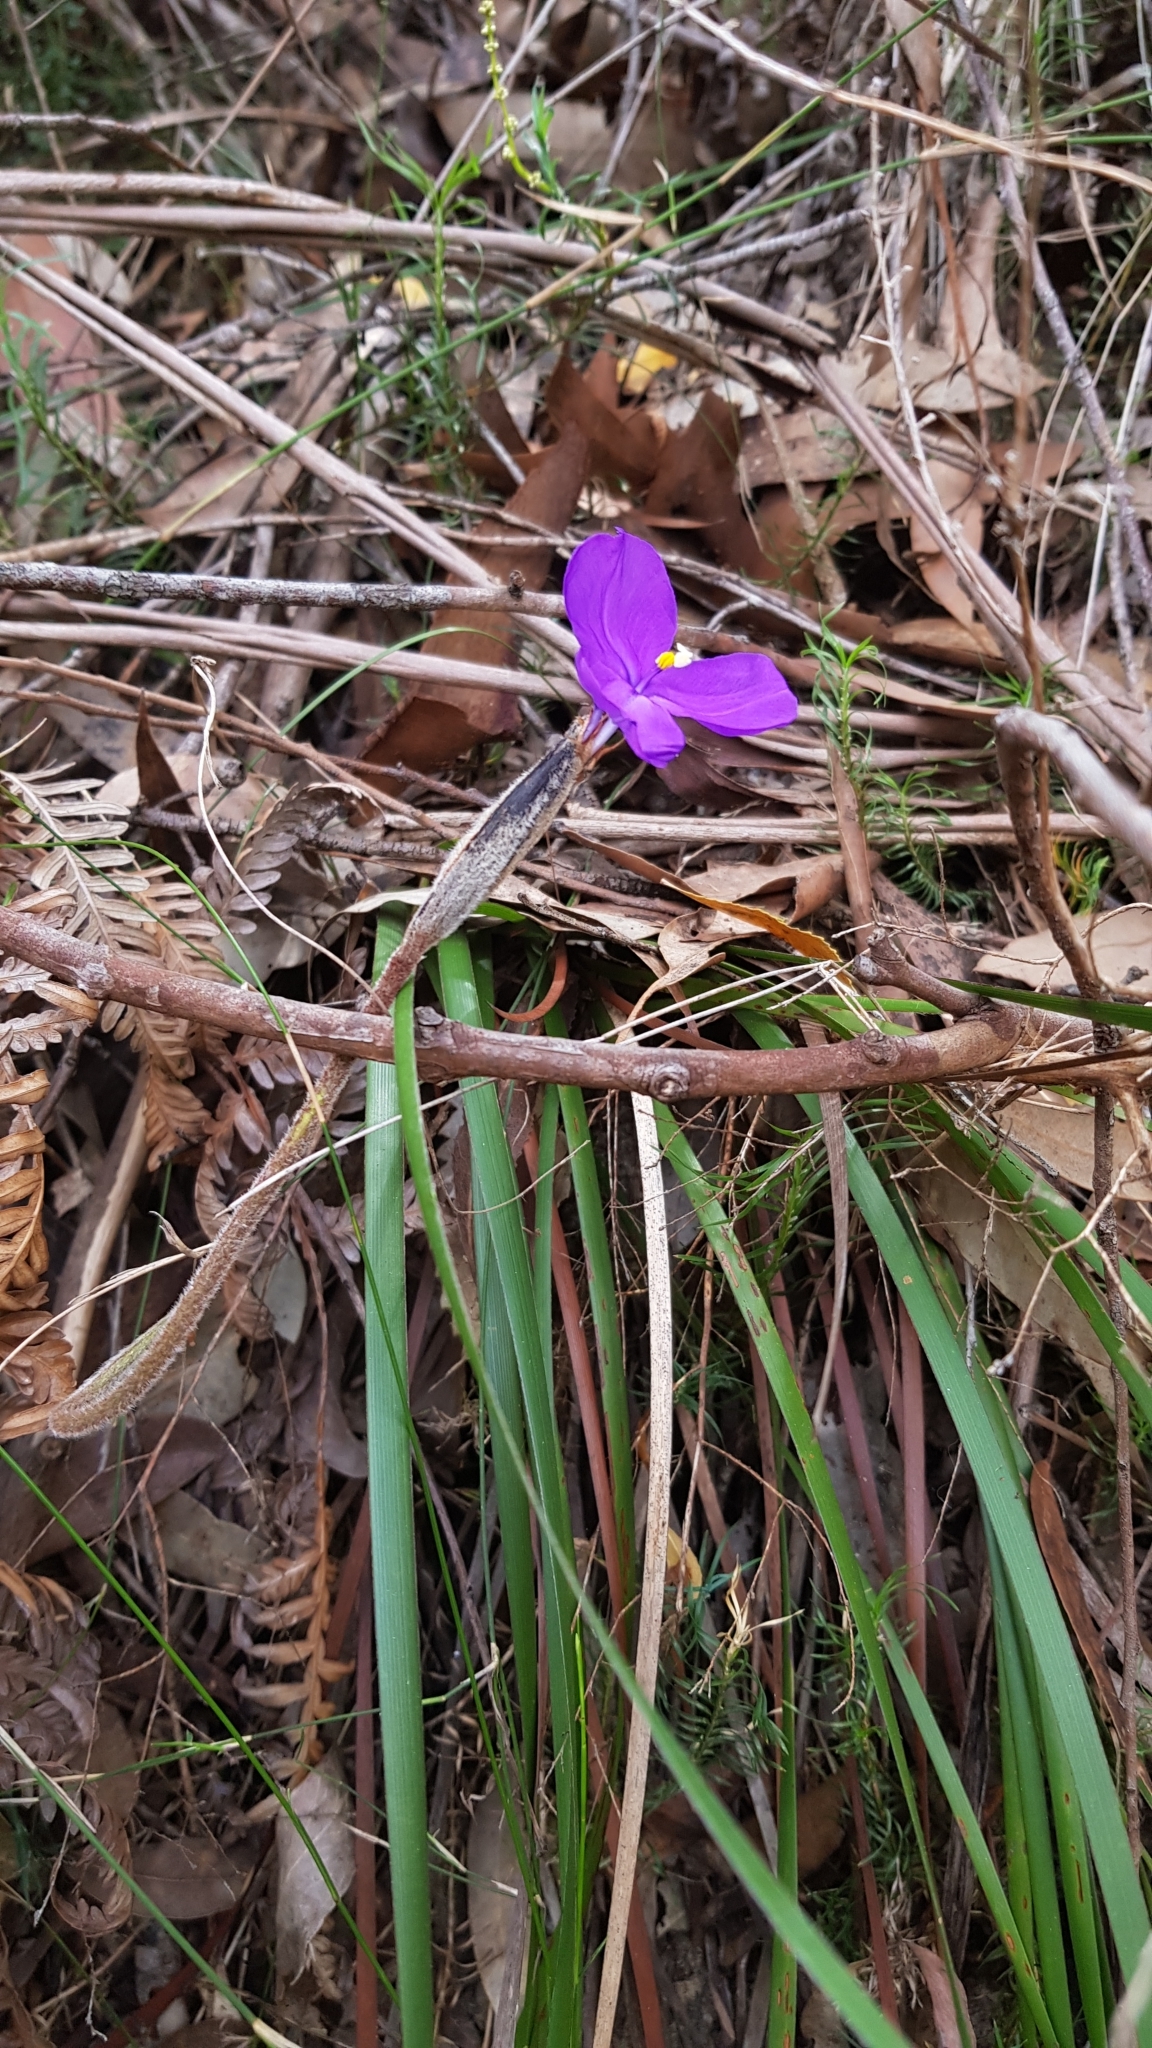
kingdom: Plantae
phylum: Tracheophyta
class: Liliopsida
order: Asparagales
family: Iridaceae
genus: Patersonia
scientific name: Patersonia sericea
